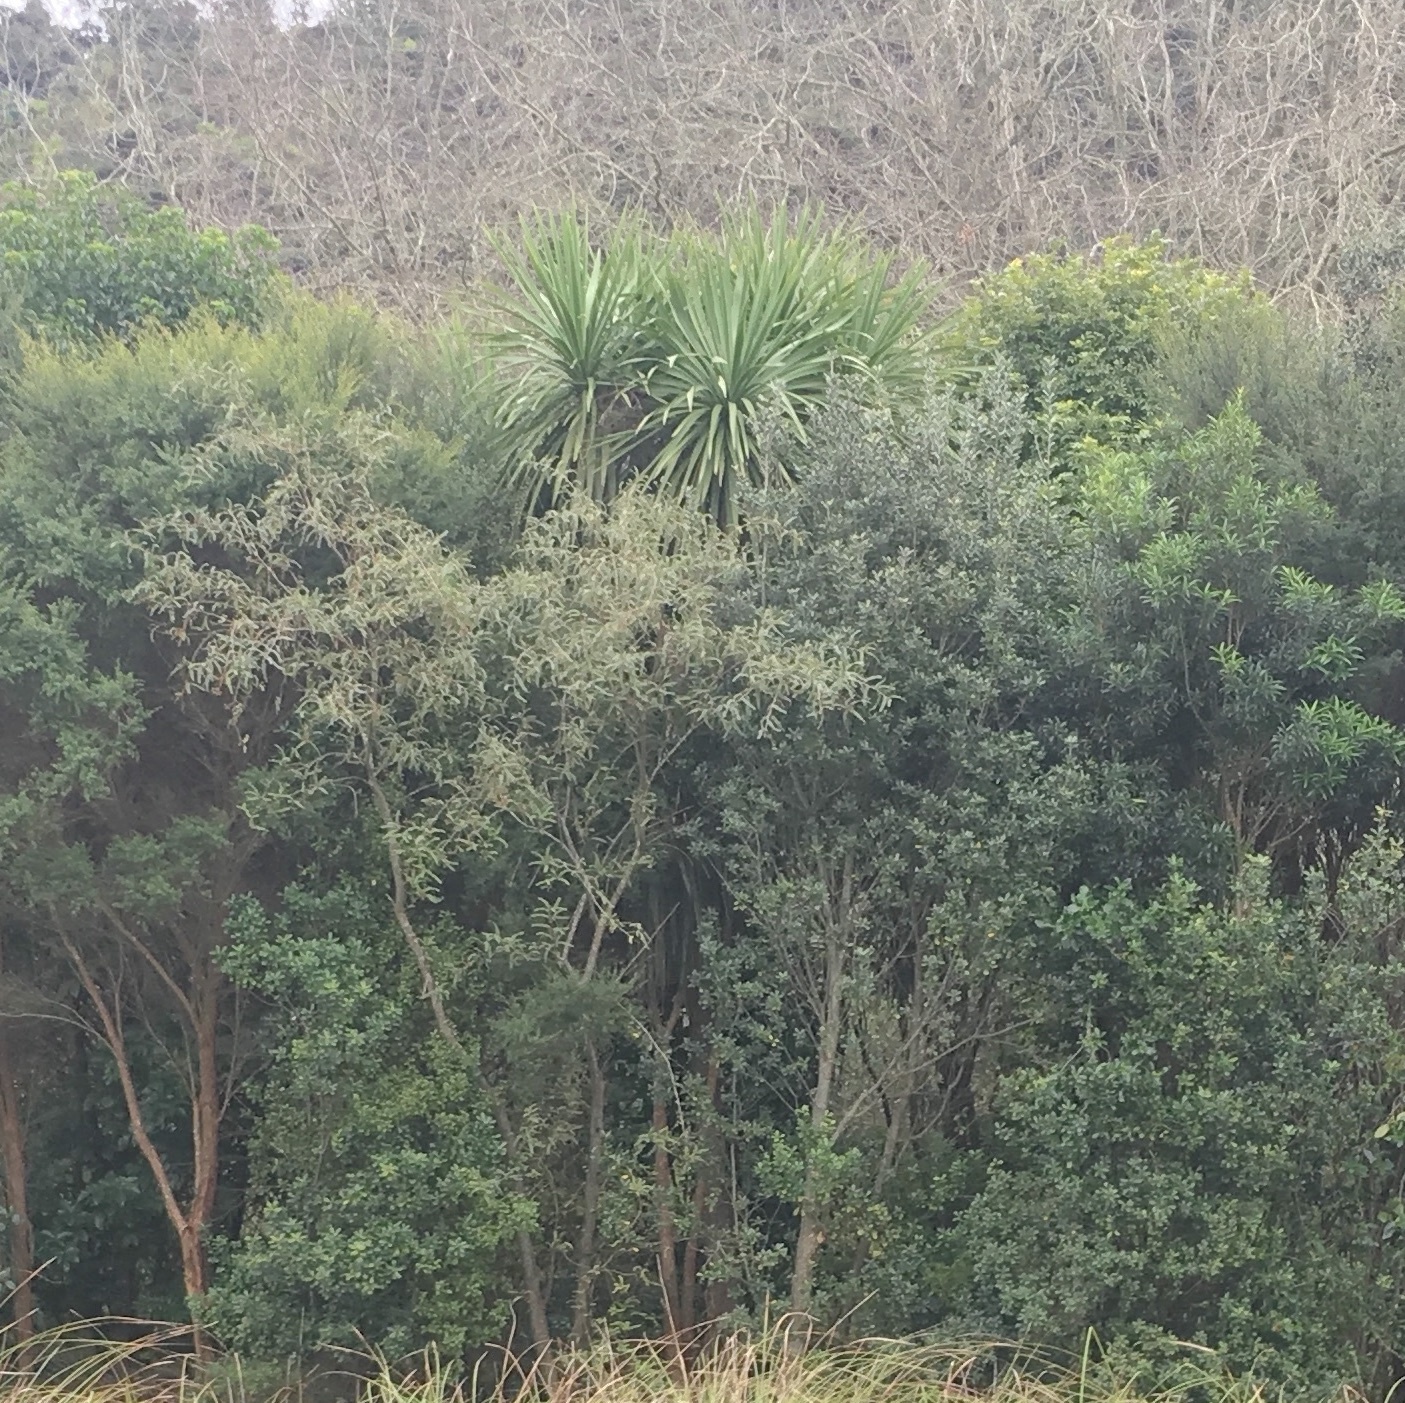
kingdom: Plantae
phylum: Tracheophyta
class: Liliopsida
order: Asparagales
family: Asparagaceae
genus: Cordyline
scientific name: Cordyline australis
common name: Cabbage-palm
